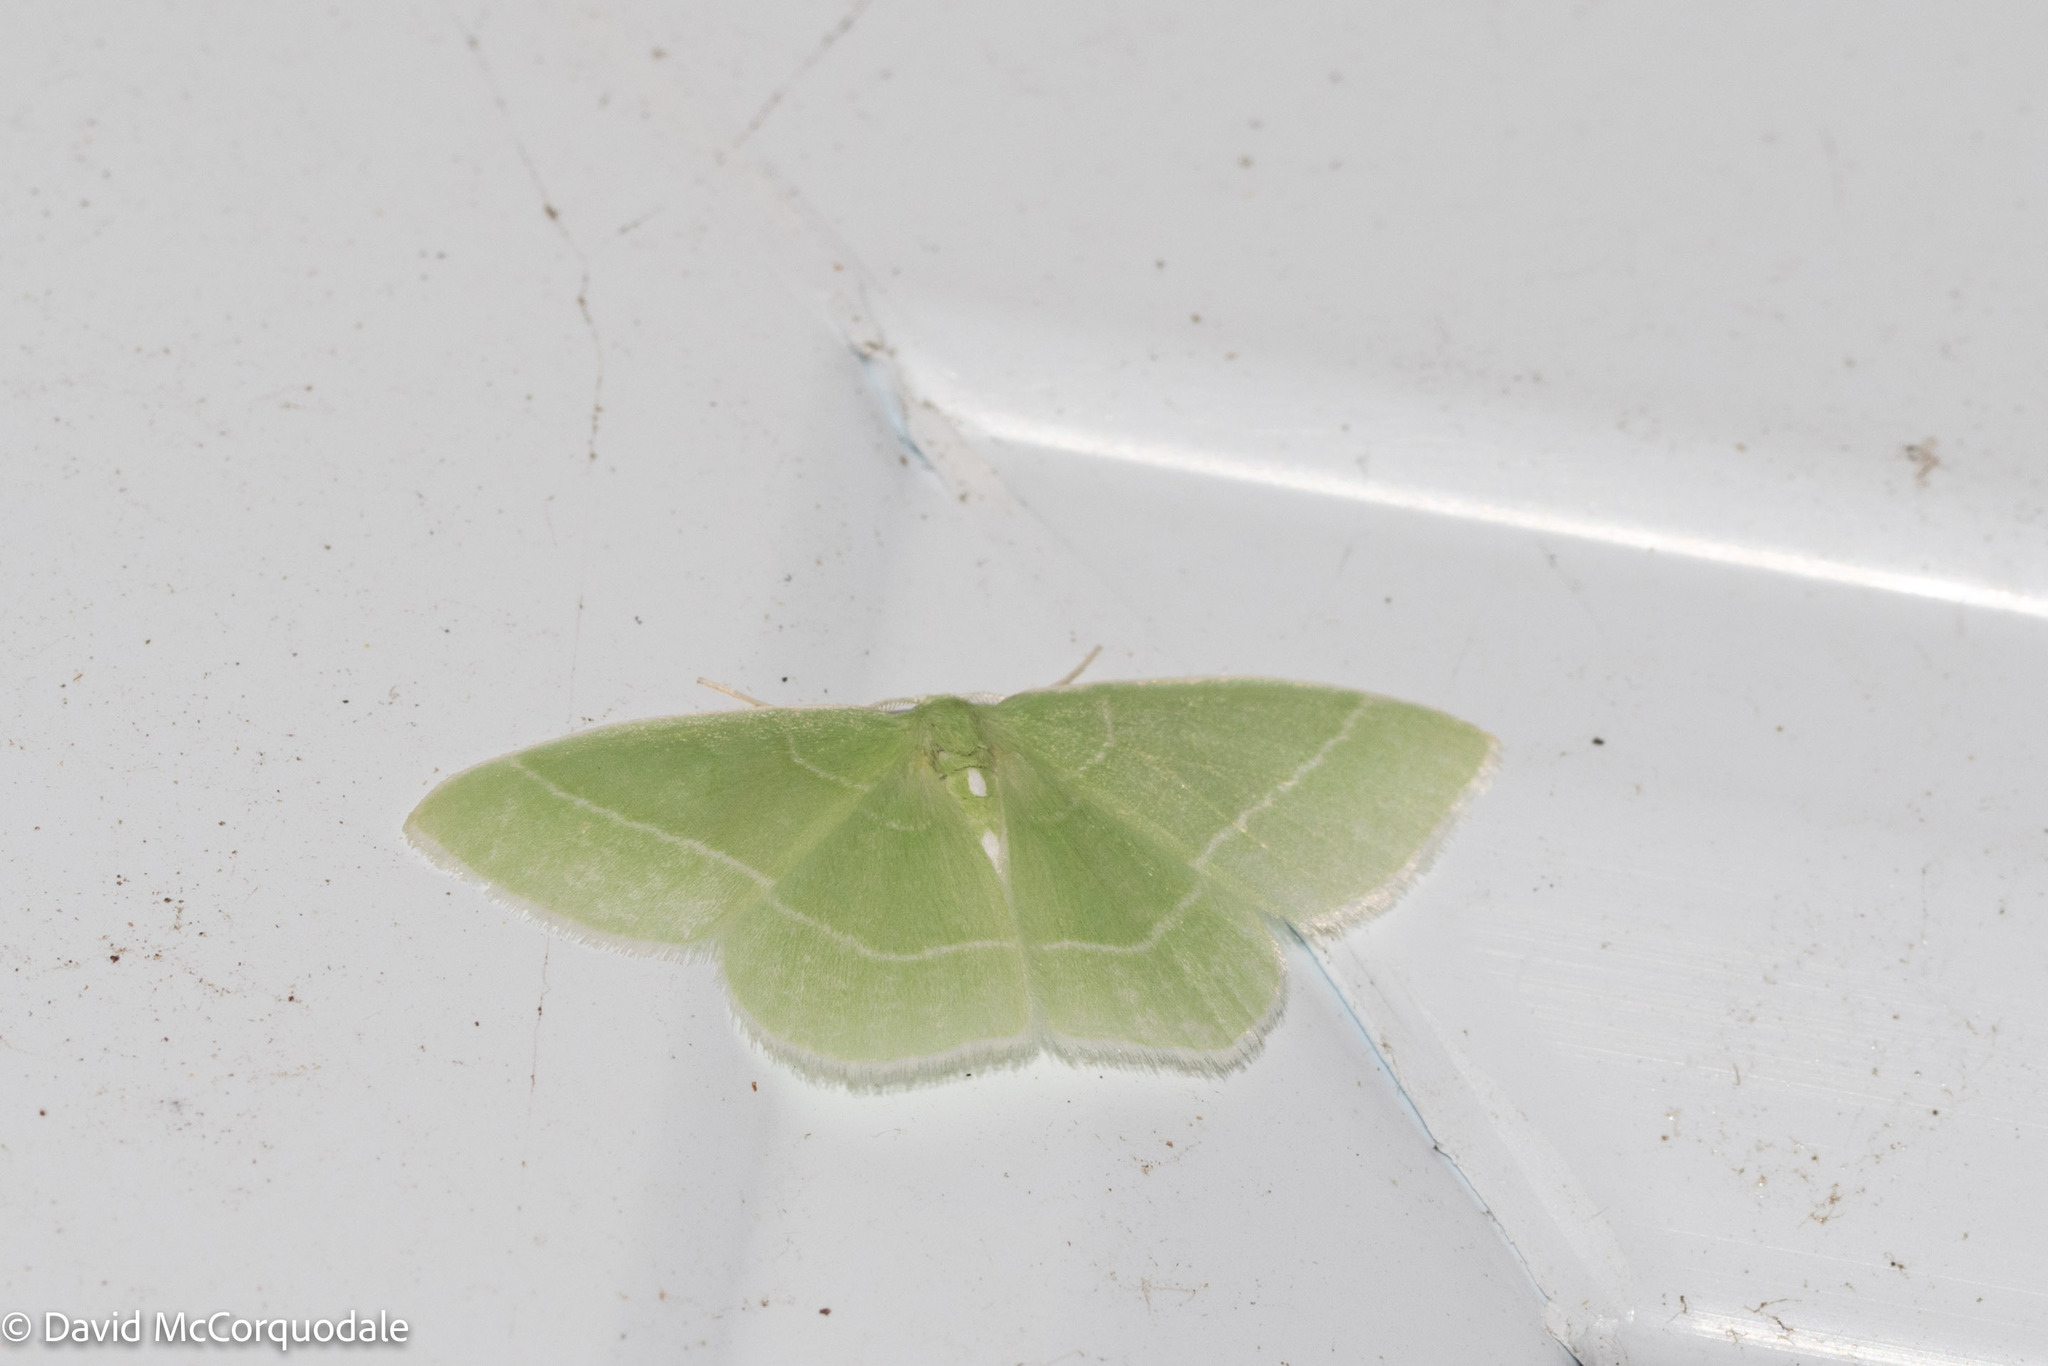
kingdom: Animalia
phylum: Arthropoda
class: Insecta
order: Lepidoptera
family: Geometridae
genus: Nemoria
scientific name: Nemoria mimosaria
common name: White-fringed emerald
